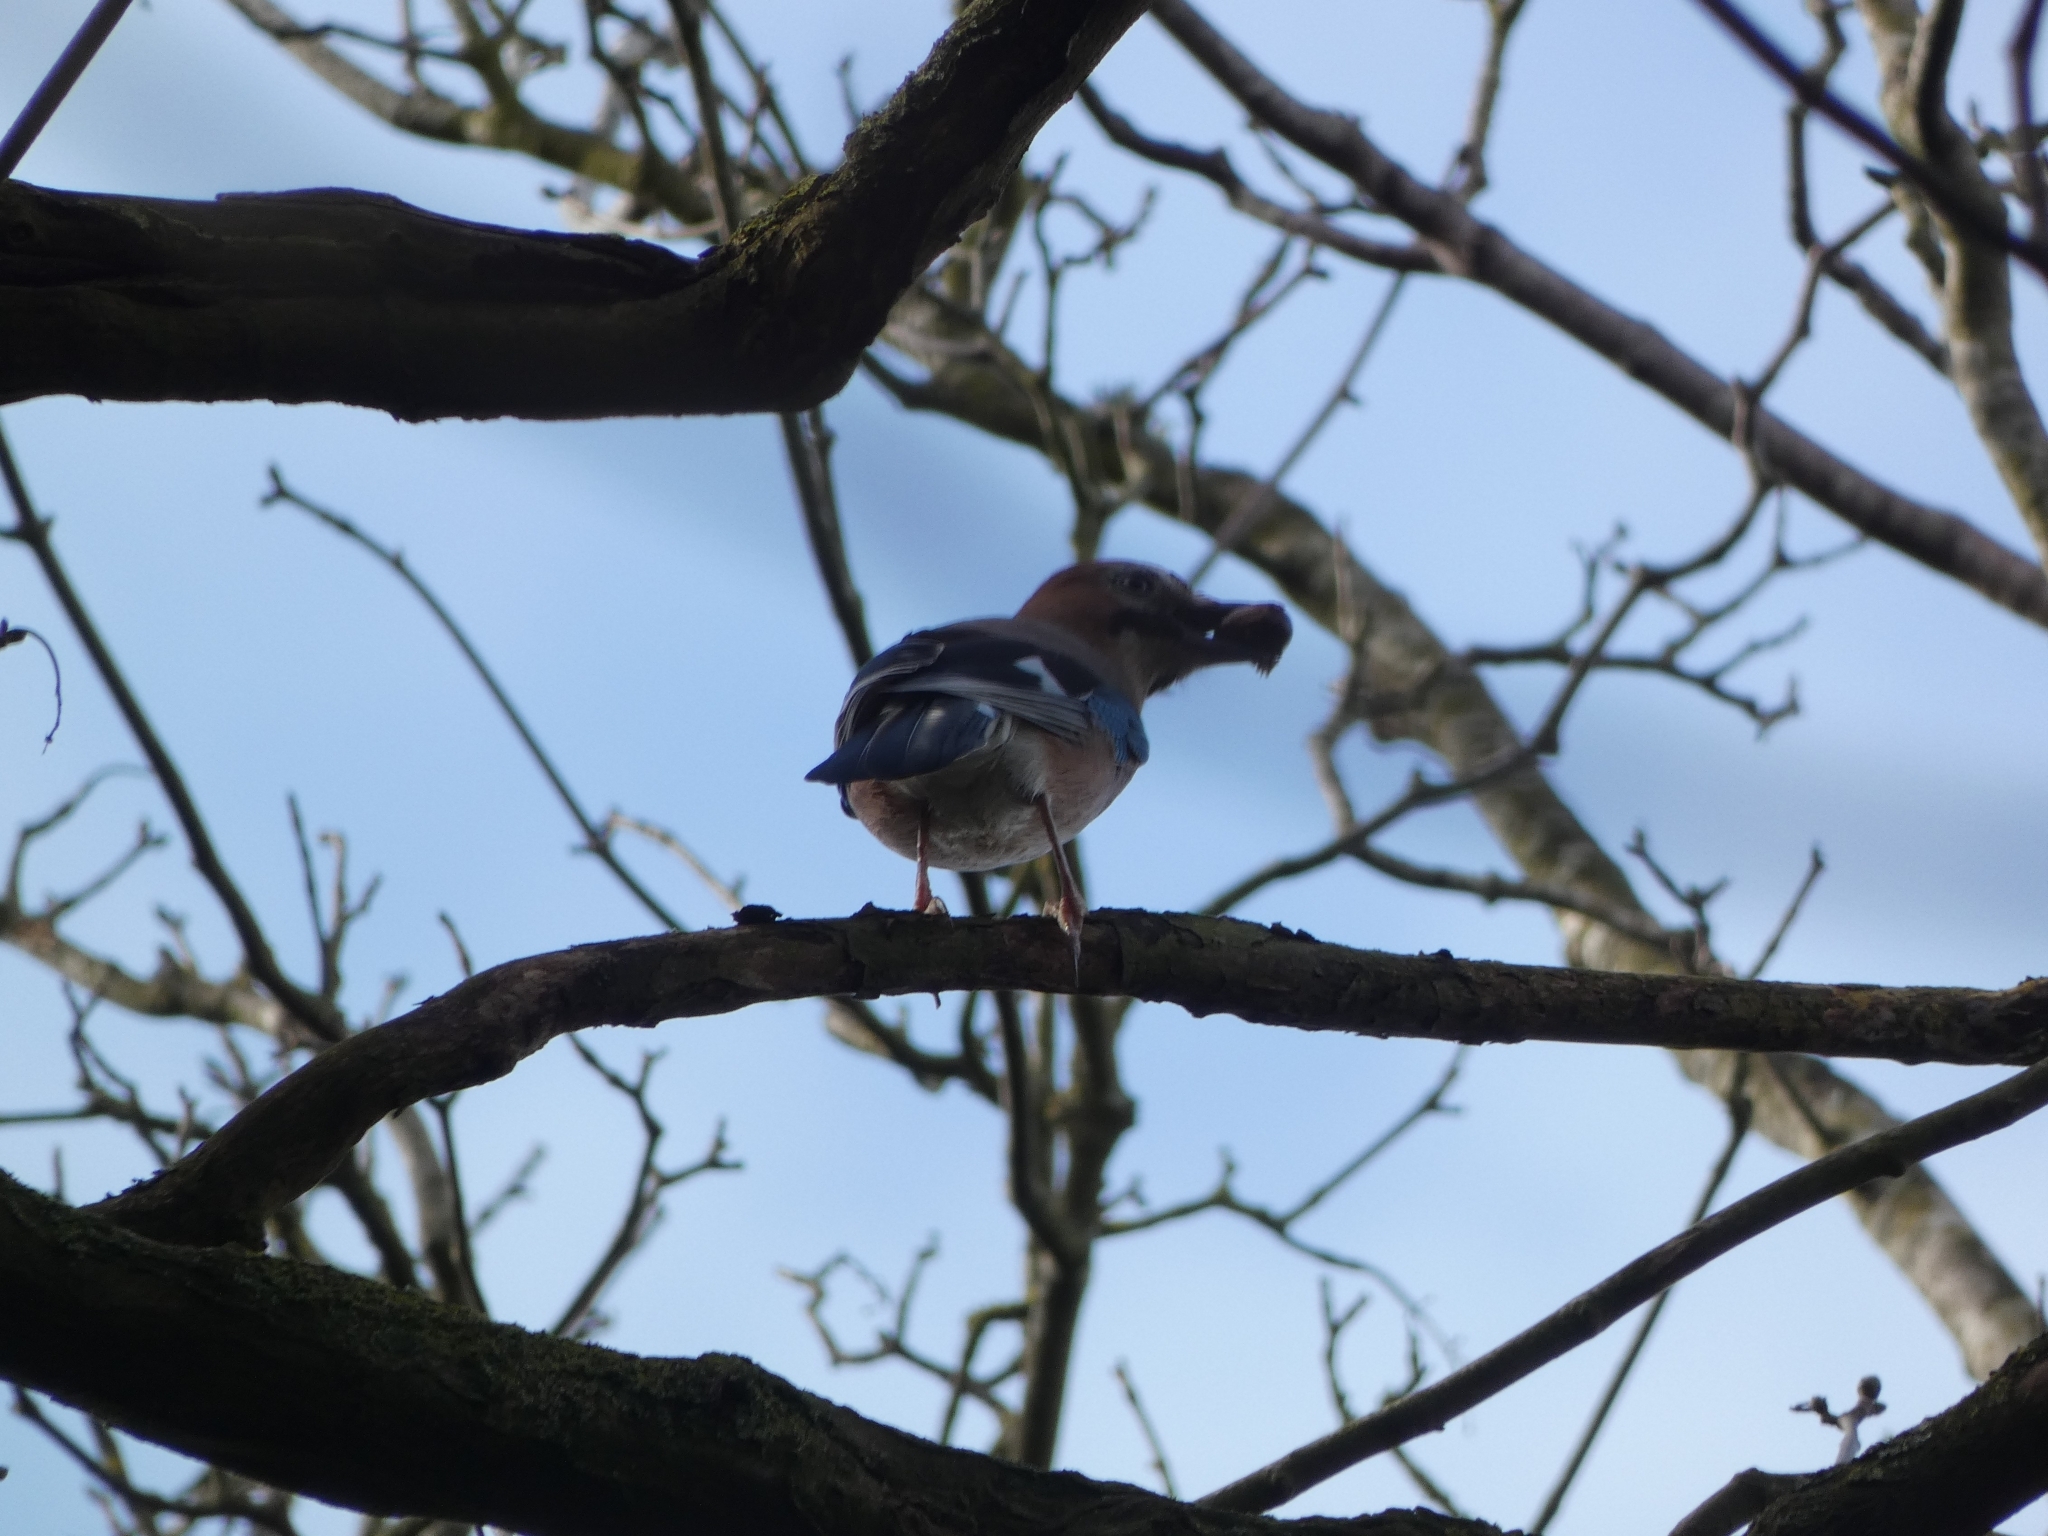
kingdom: Animalia
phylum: Chordata
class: Aves
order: Passeriformes
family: Corvidae
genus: Garrulus
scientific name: Garrulus glandarius
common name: Eurasian jay
